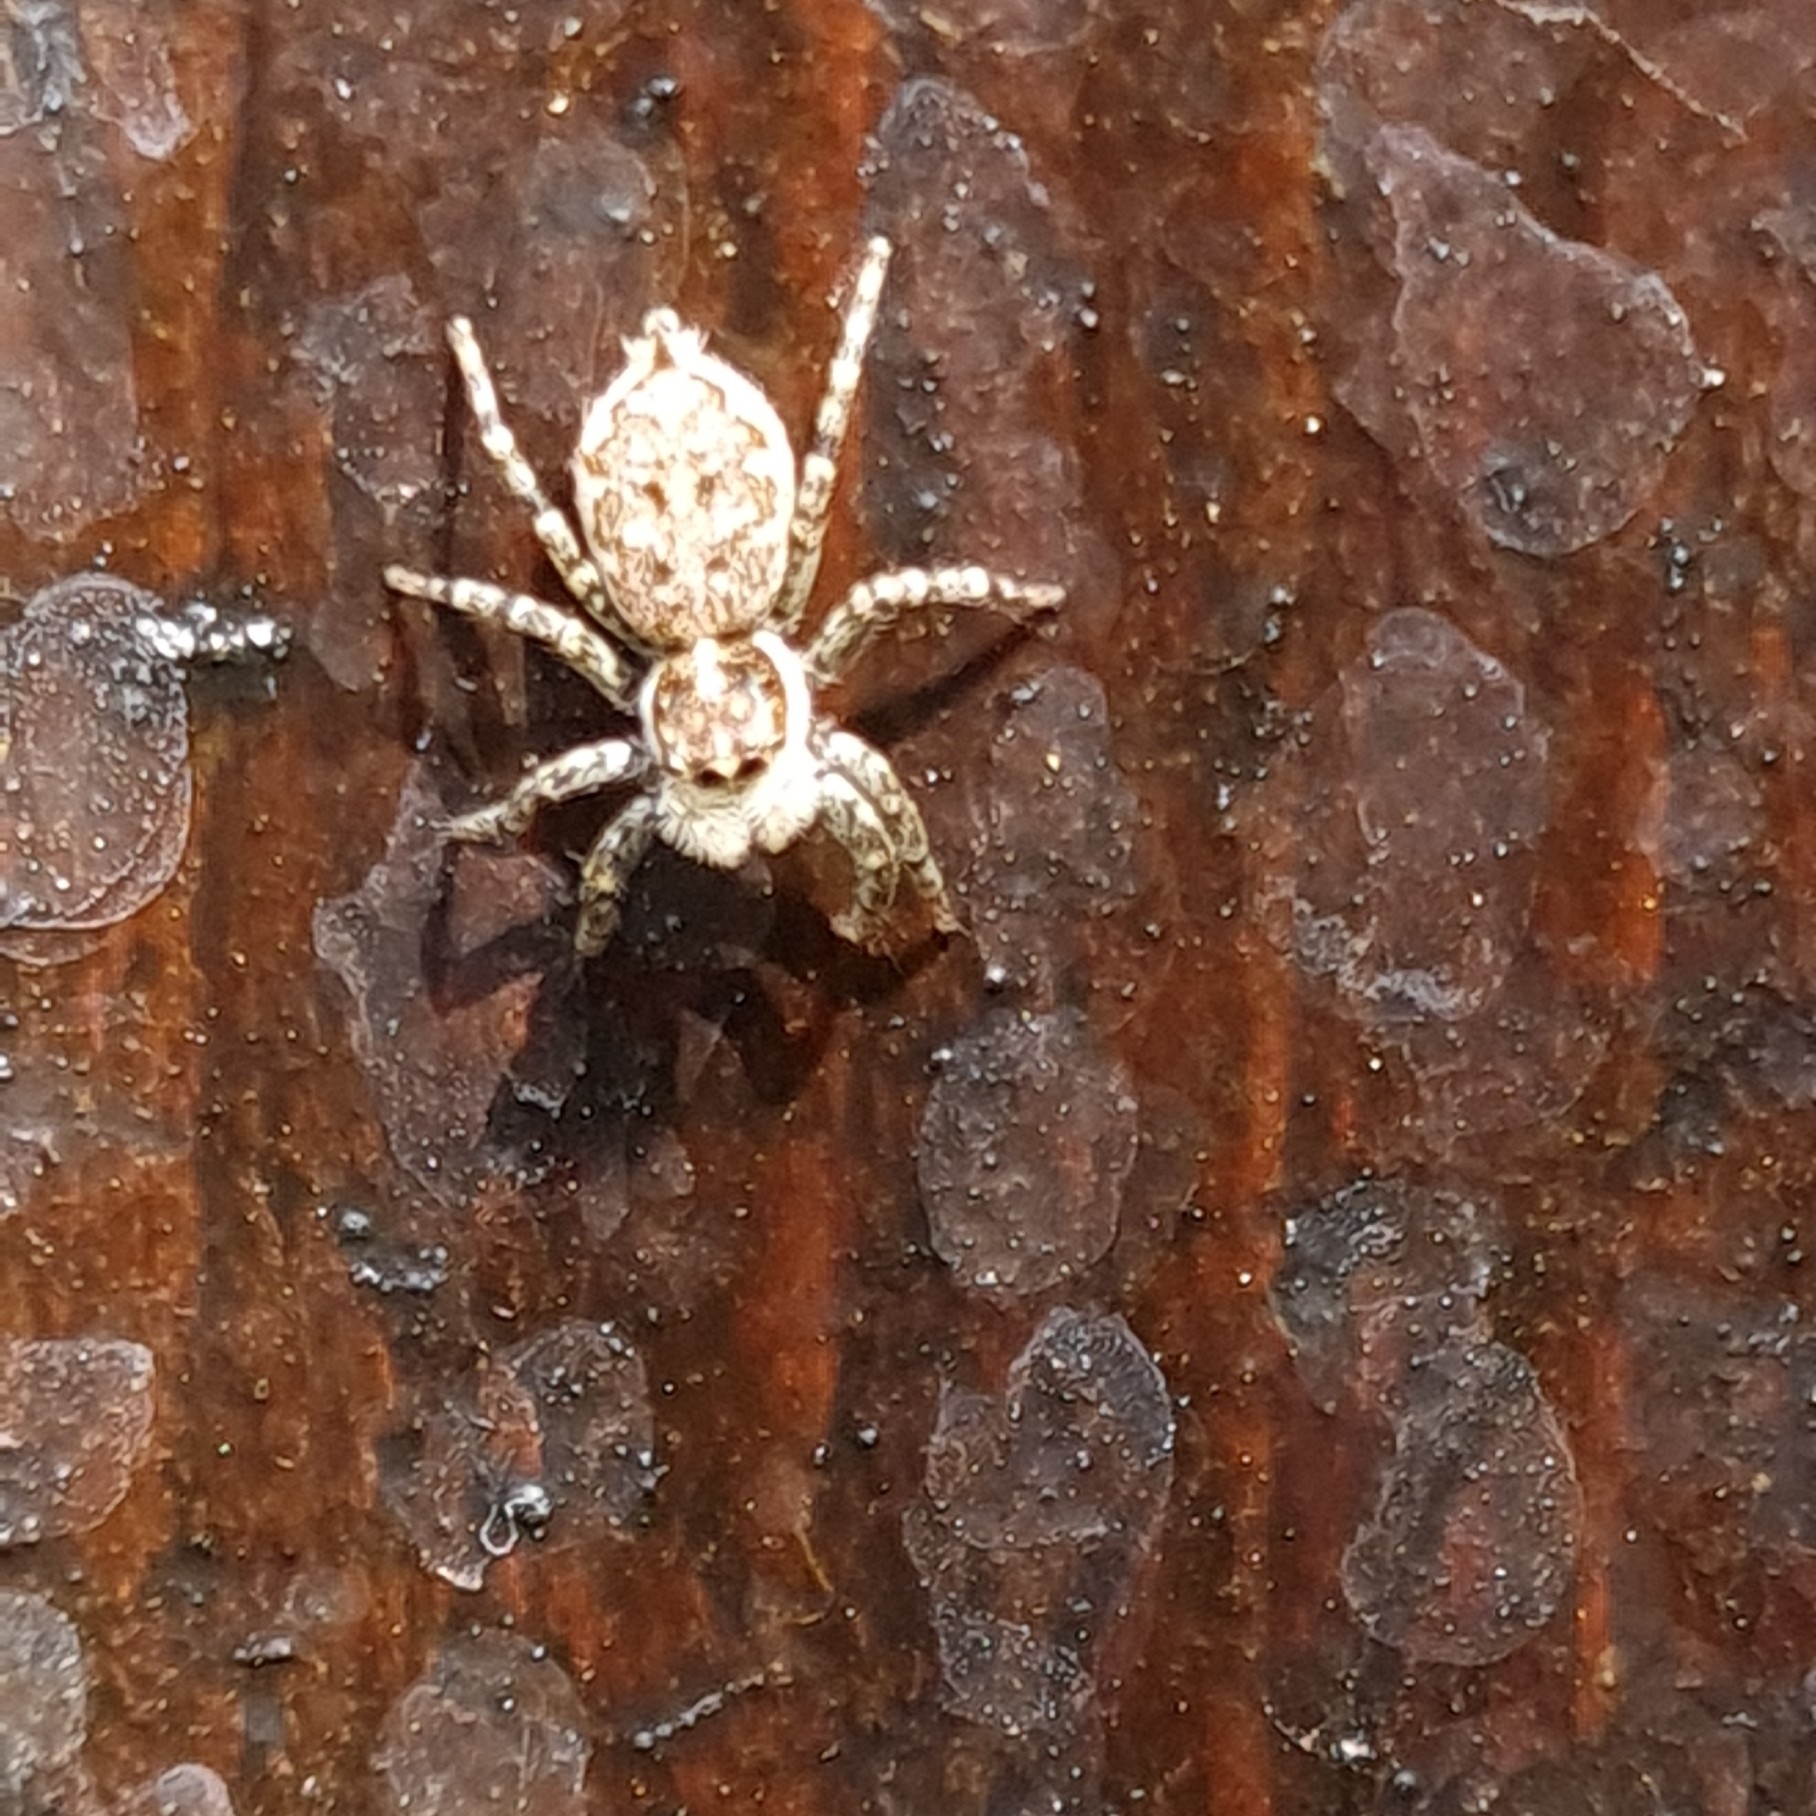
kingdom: Animalia
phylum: Arthropoda
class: Arachnida
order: Araneae
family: Salticidae
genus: Menemerus
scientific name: Menemerus semilimbatus
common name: Jumping spider
